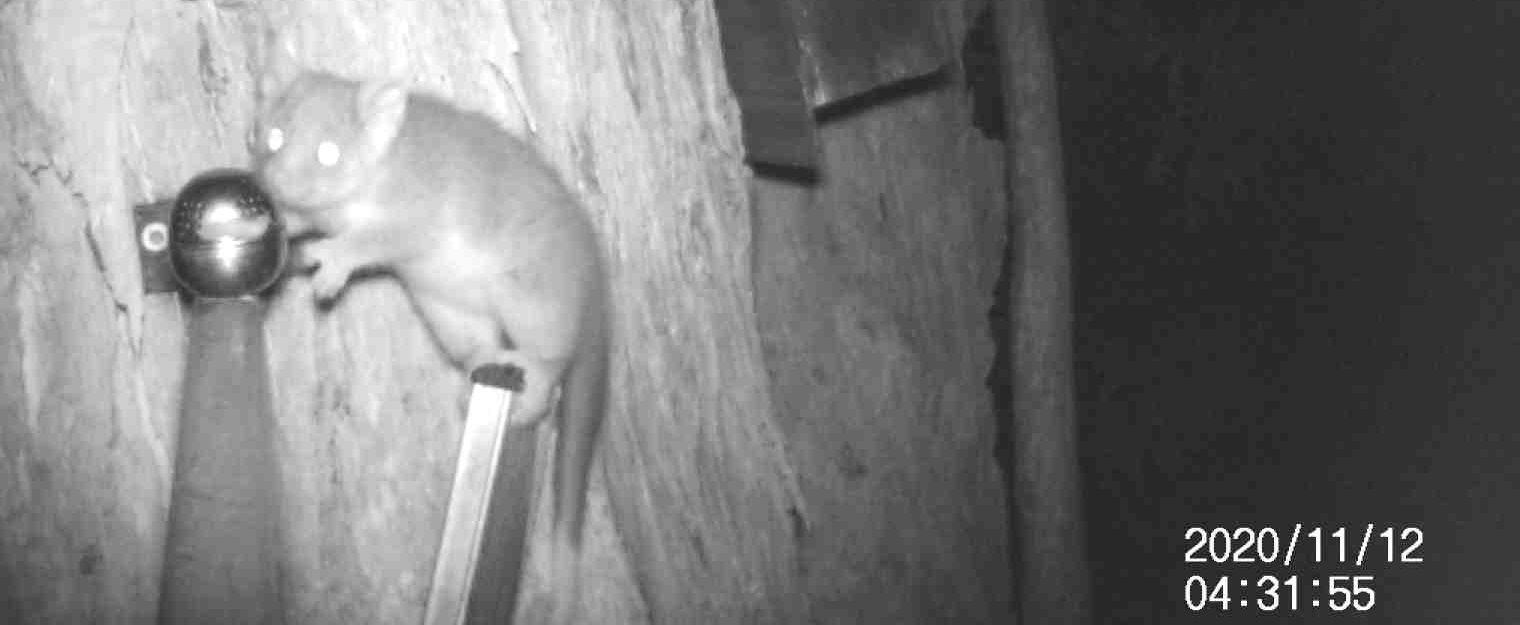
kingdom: Animalia
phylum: Chordata
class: Mammalia
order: Diprotodontia
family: Pseudocheiridae
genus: Pseudocheirus
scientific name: Pseudocheirus peregrinus
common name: Common ringtail possum
